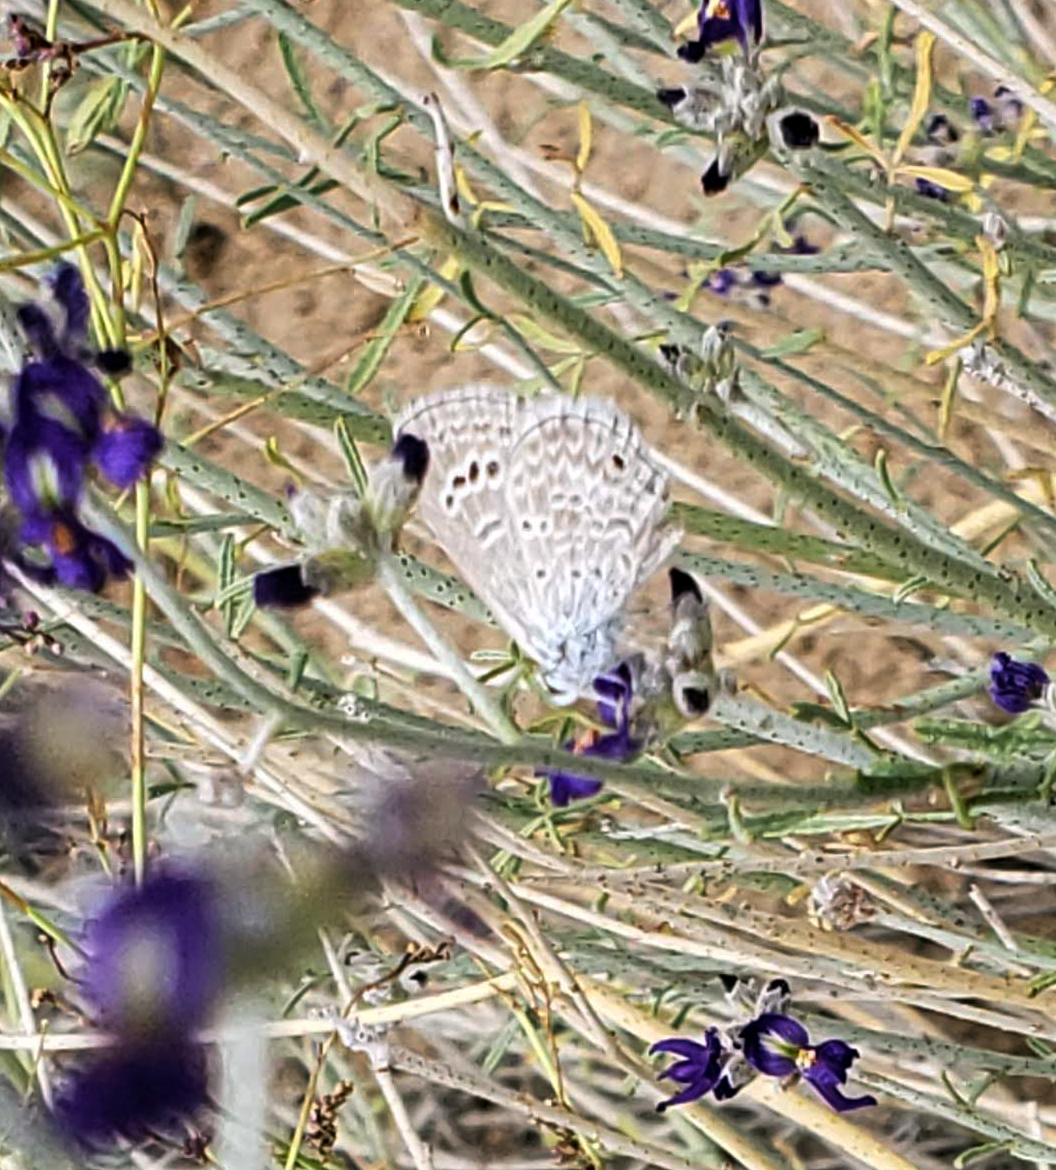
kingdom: Animalia
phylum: Arthropoda
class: Insecta
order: Lepidoptera
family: Lycaenidae
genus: Echinargus
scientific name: Echinargus isola
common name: Reakirt's blue
